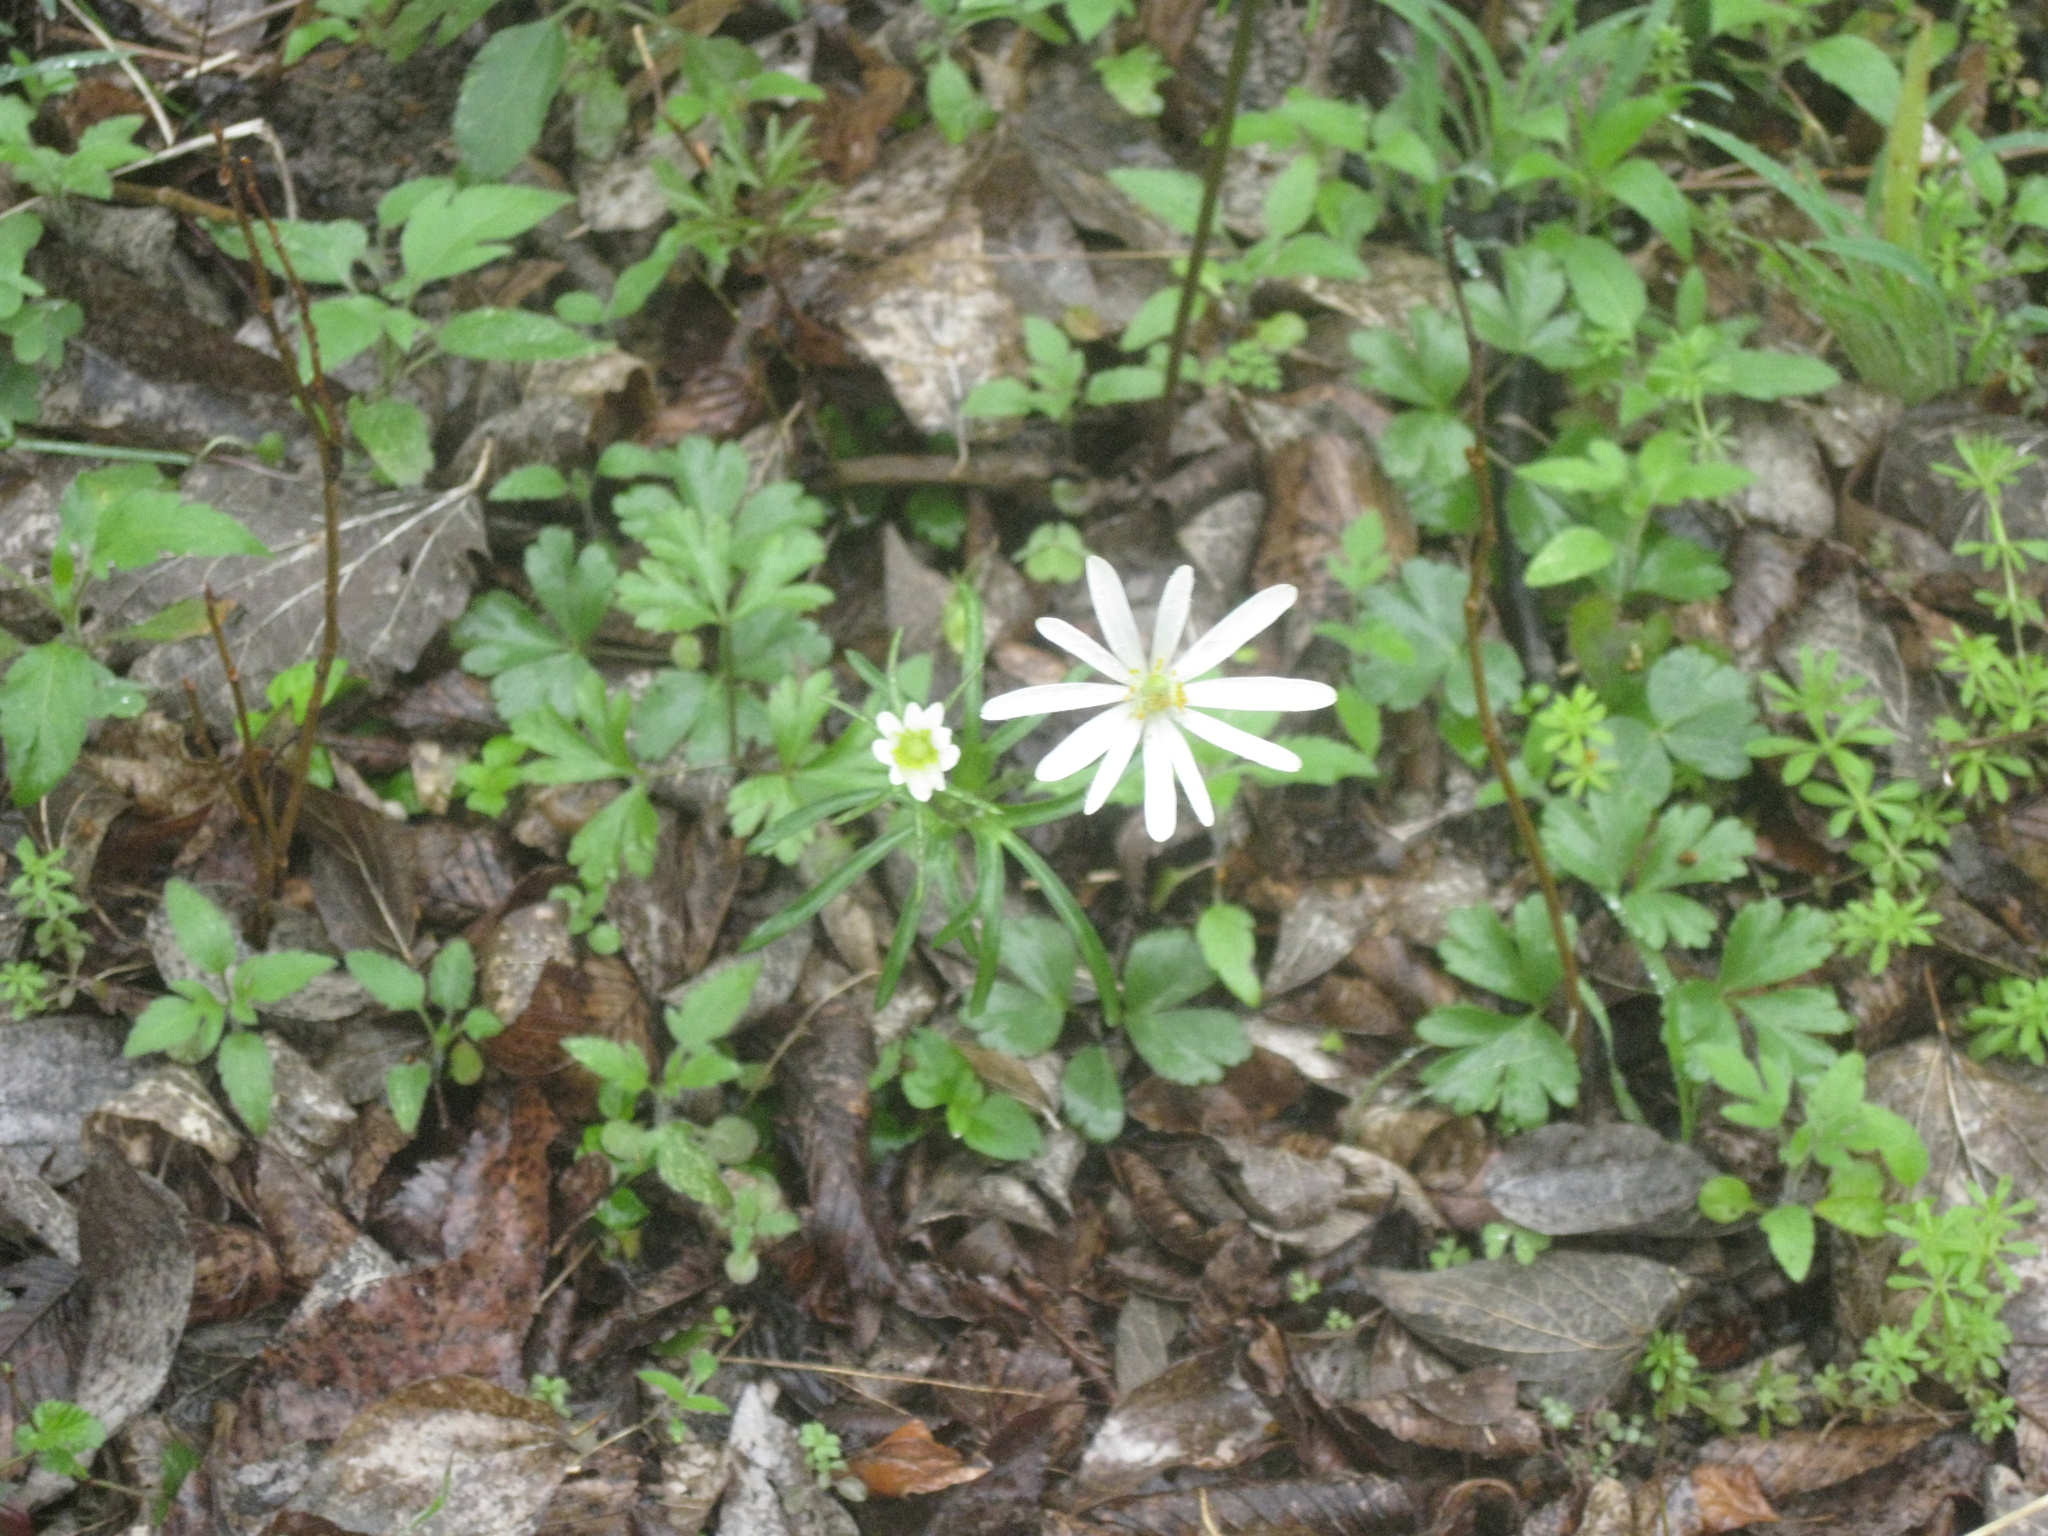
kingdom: Plantae
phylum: Tracheophyta
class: Magnoliopsida
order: Ranunculales
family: Ranunculaceae
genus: Anemone
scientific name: Anemone edwardsiana
